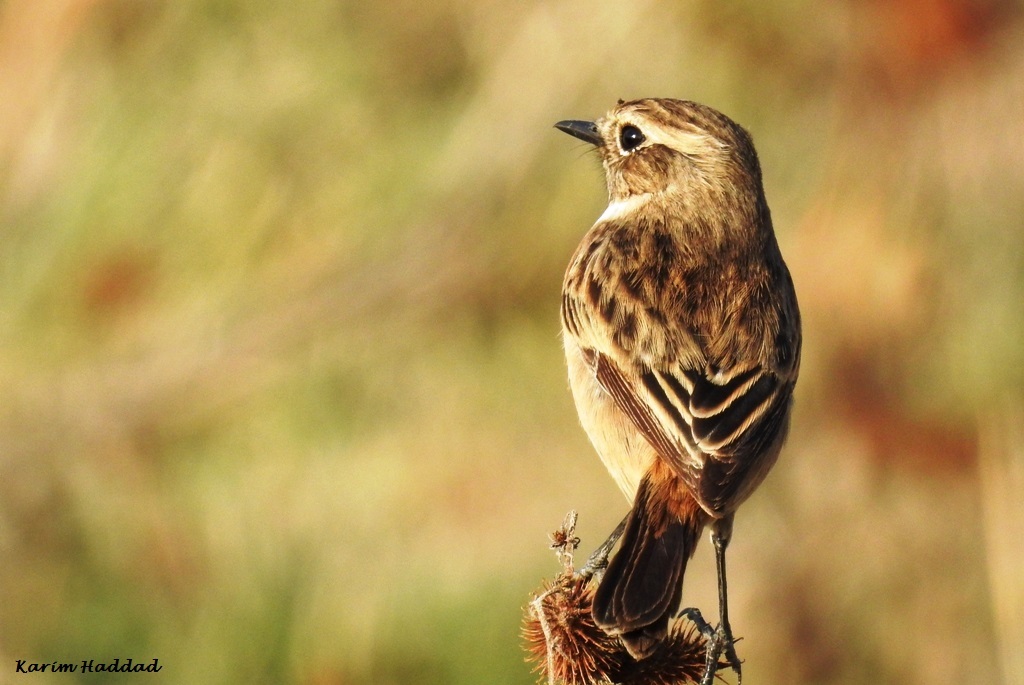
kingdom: Animalia
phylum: Chordata
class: Aves
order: Passeriformes
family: Muscicapidae
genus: Saxicola
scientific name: Saxicola rubicola
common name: European stonechat
